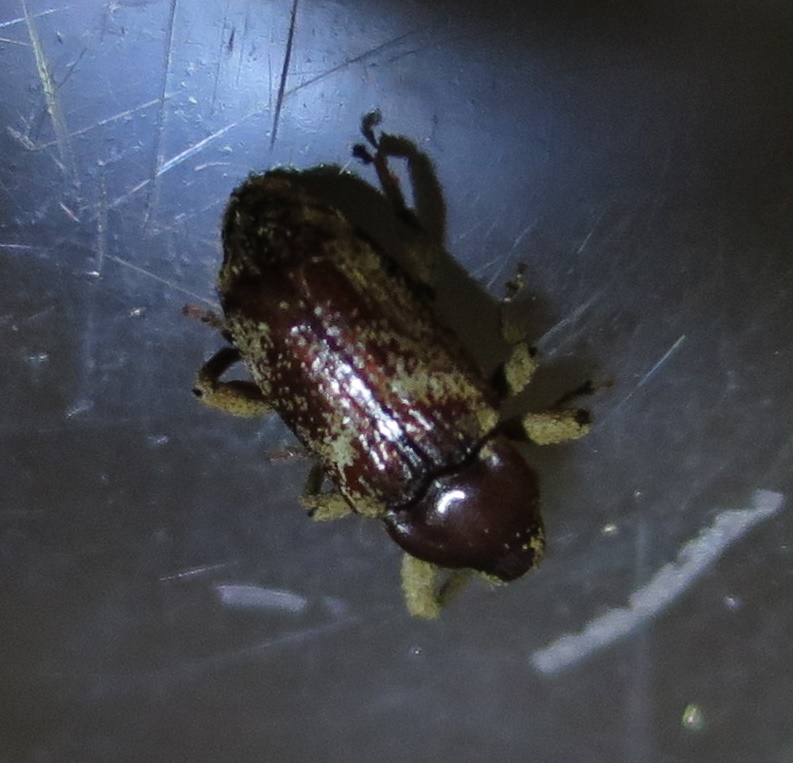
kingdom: Animalia
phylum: Arthropoda
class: Insecta
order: Coleoptera
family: Curculionidae
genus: Mitrastethus
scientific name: Mitrastethus baridioides
